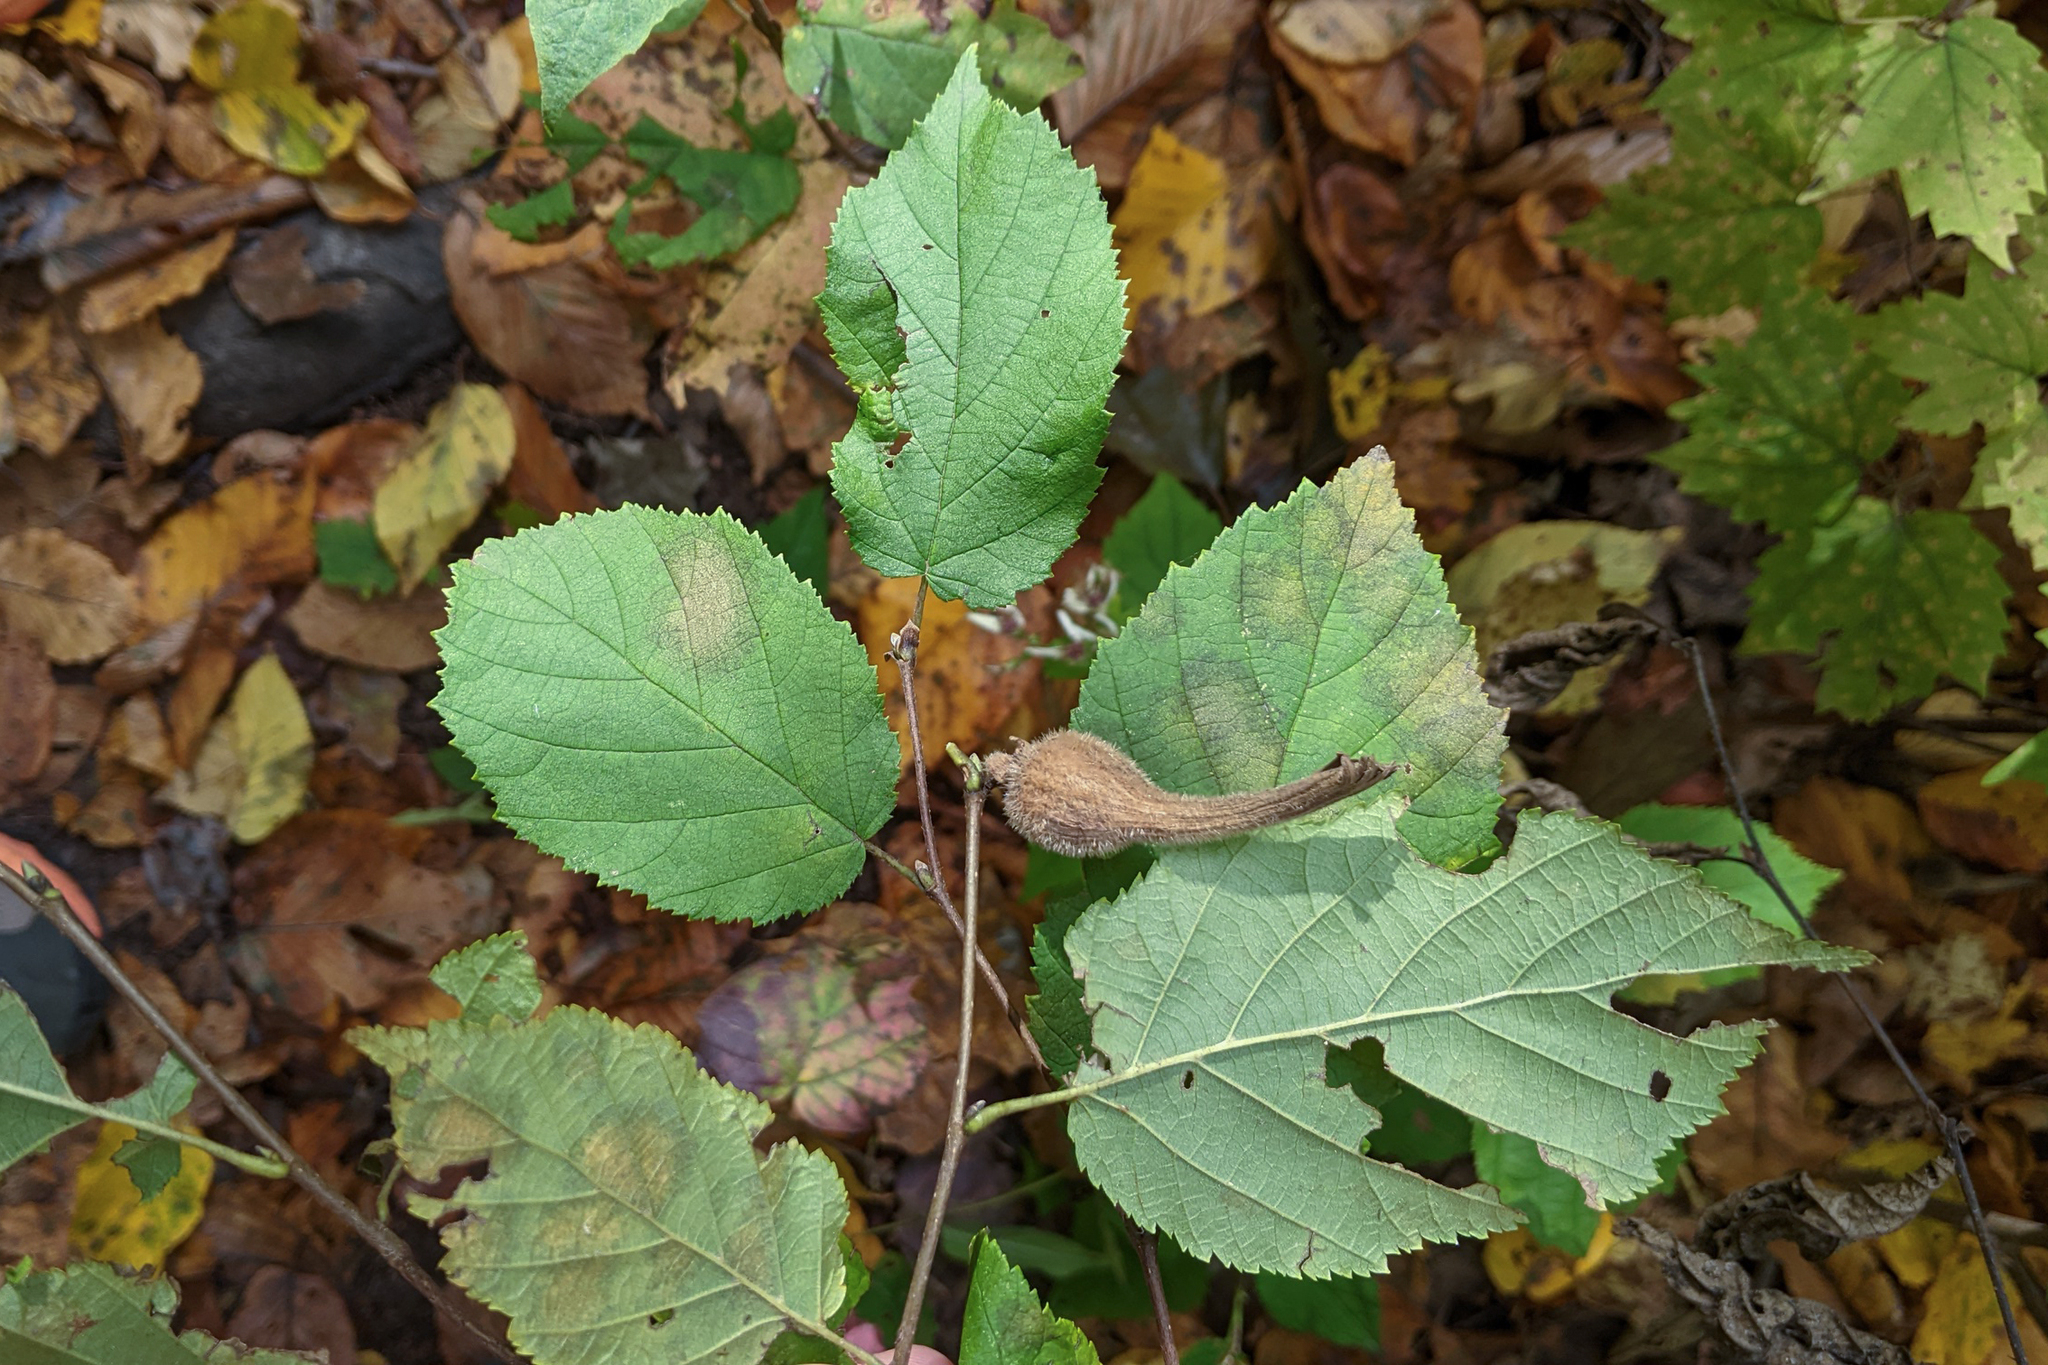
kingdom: Plantae
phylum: Tracheophyta
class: Magnoliopsida
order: Fagales
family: Betulaceae
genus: Corylus
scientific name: Corylus cornuta
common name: Beaked hazel
